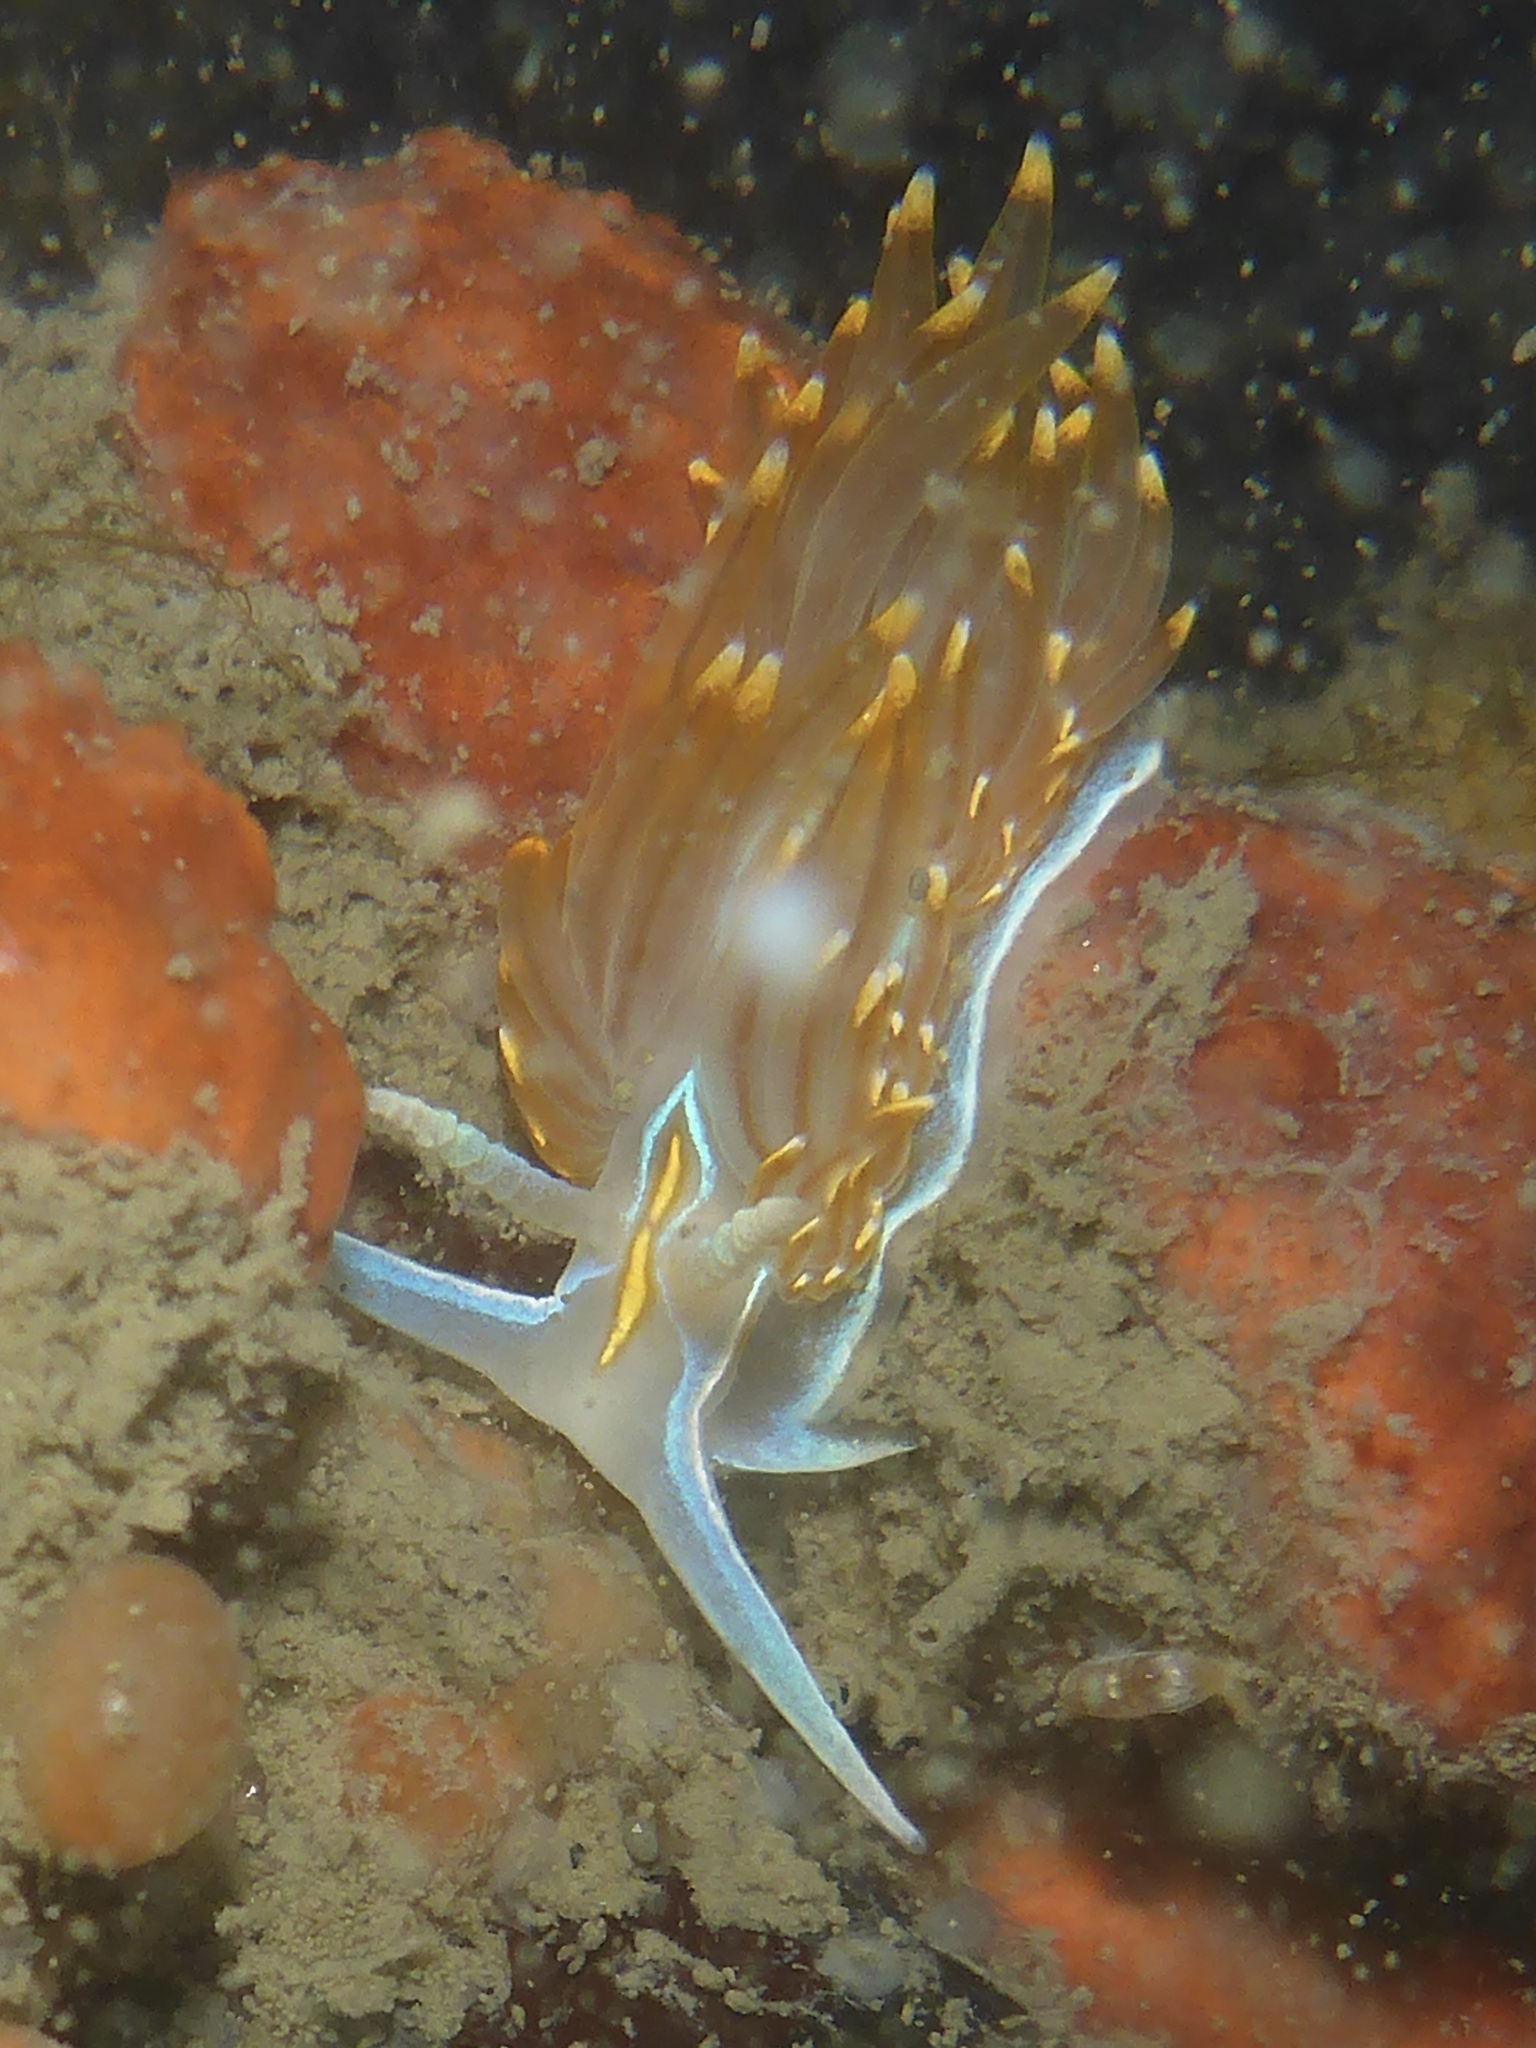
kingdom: Animalia
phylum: Mollusca
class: Gastropoda
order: Nudibranchia
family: Myrrhinidae
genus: Hermissenda
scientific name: Hermissenda opalescens
